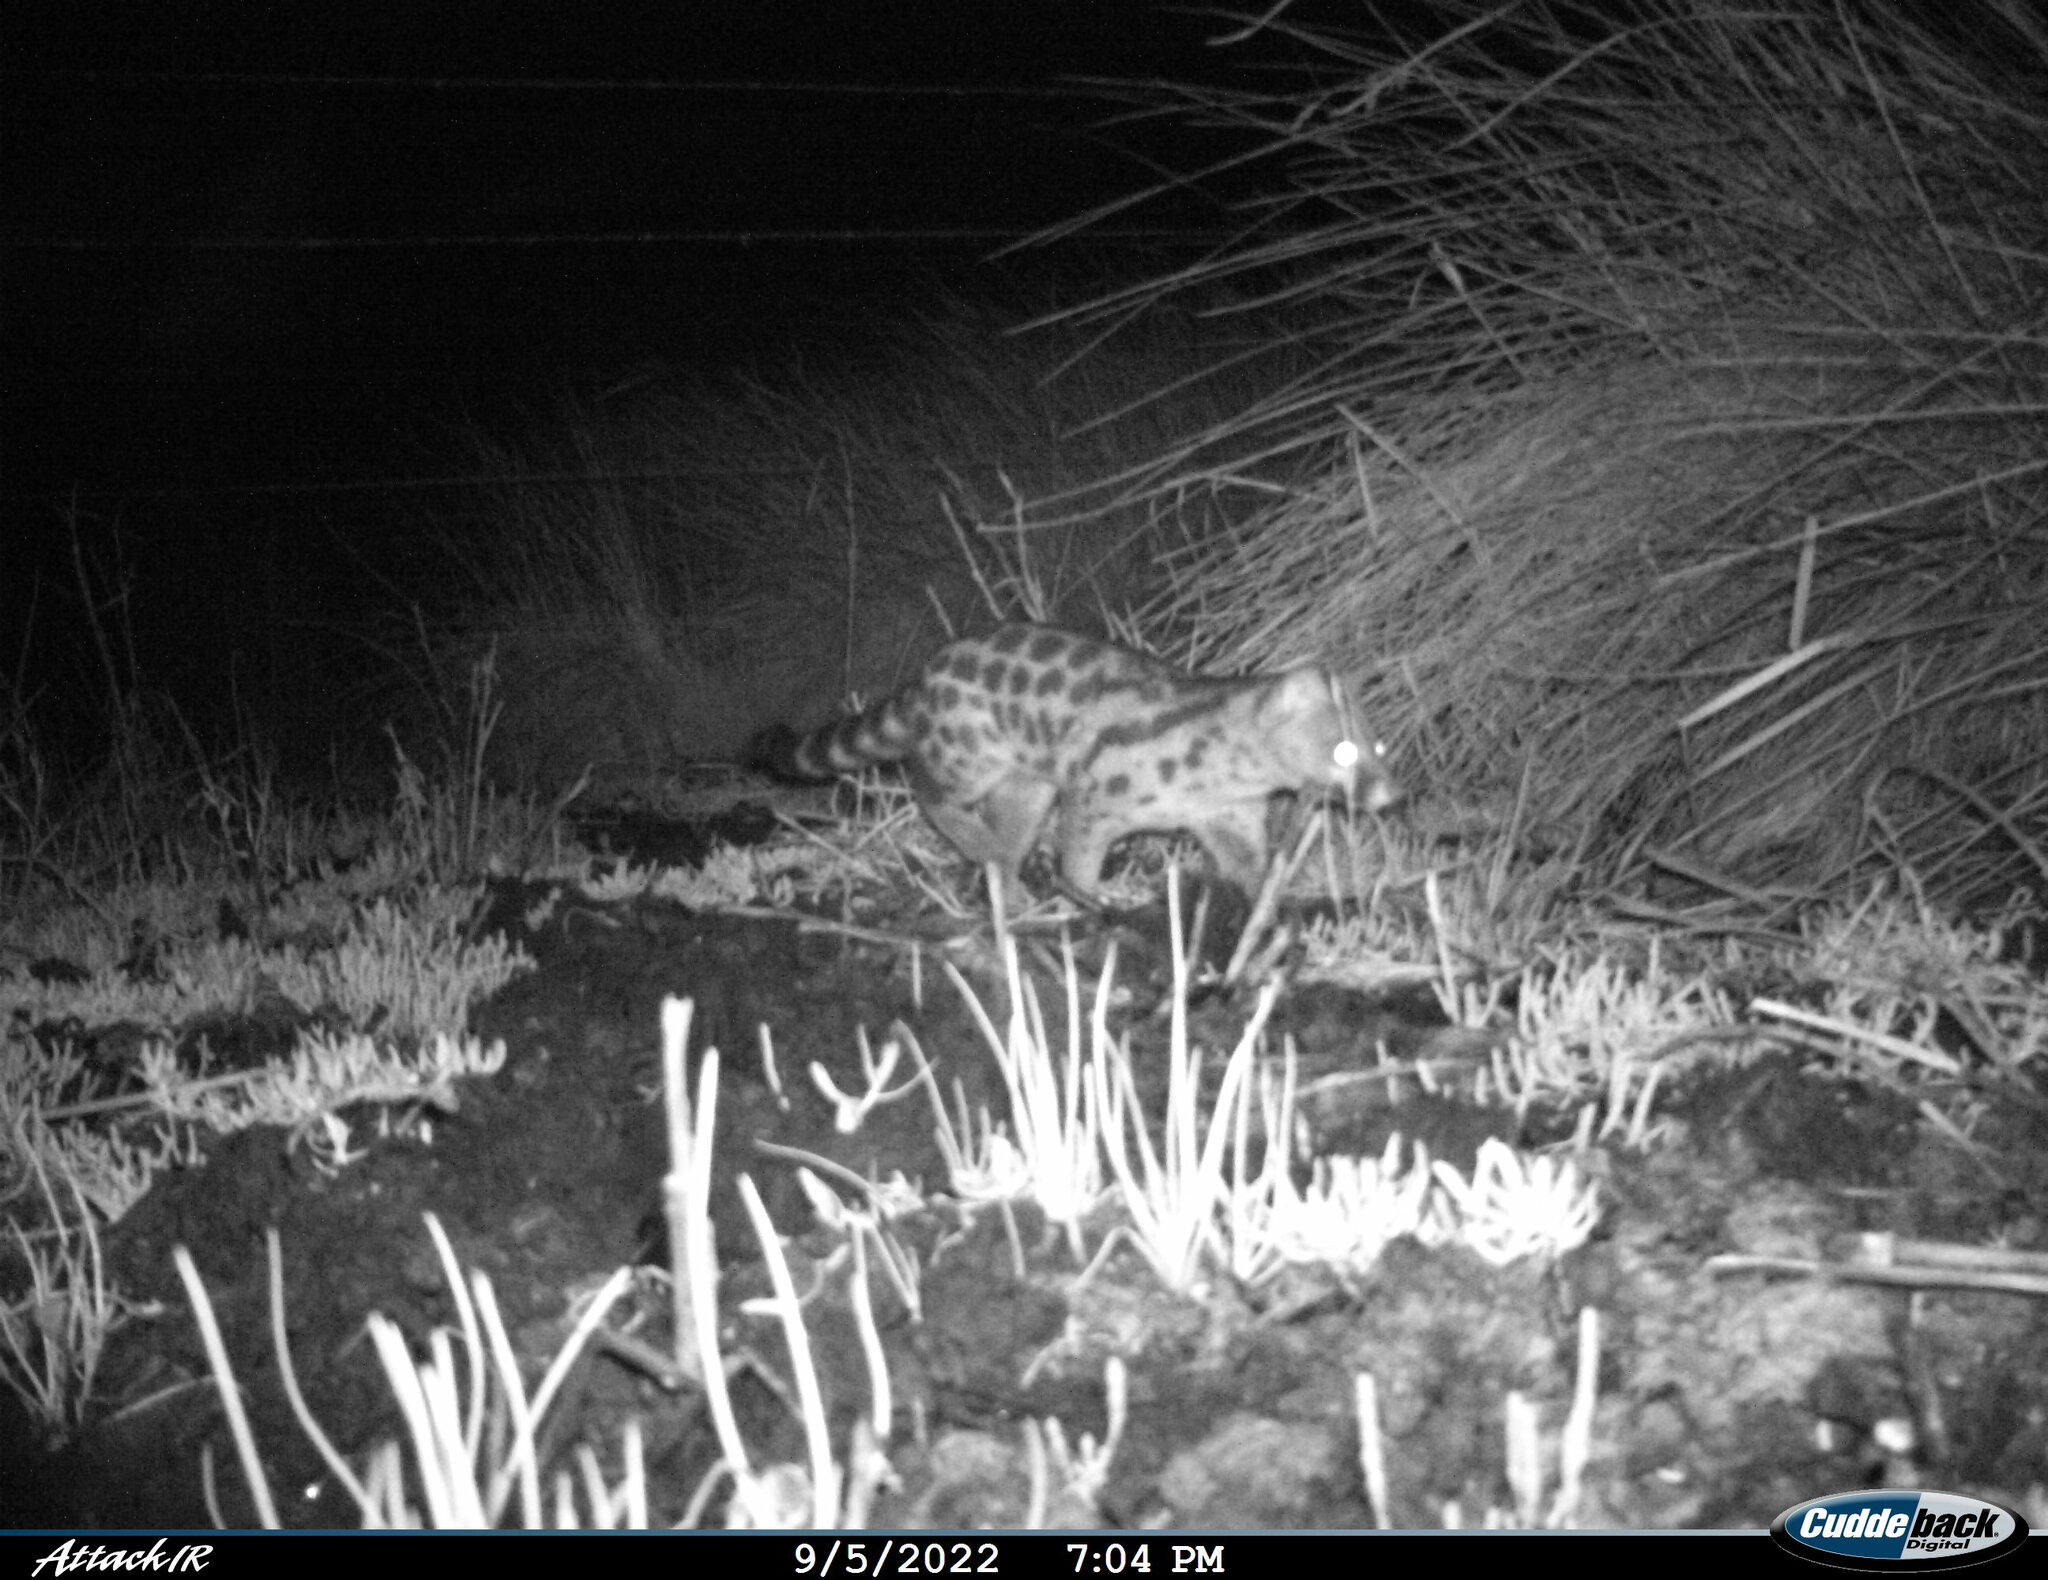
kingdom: Animalia
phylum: Chordata
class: Mammalia
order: Carnivora
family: Viverridae
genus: Genetta
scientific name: Genetta tigrina
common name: Cape genet
